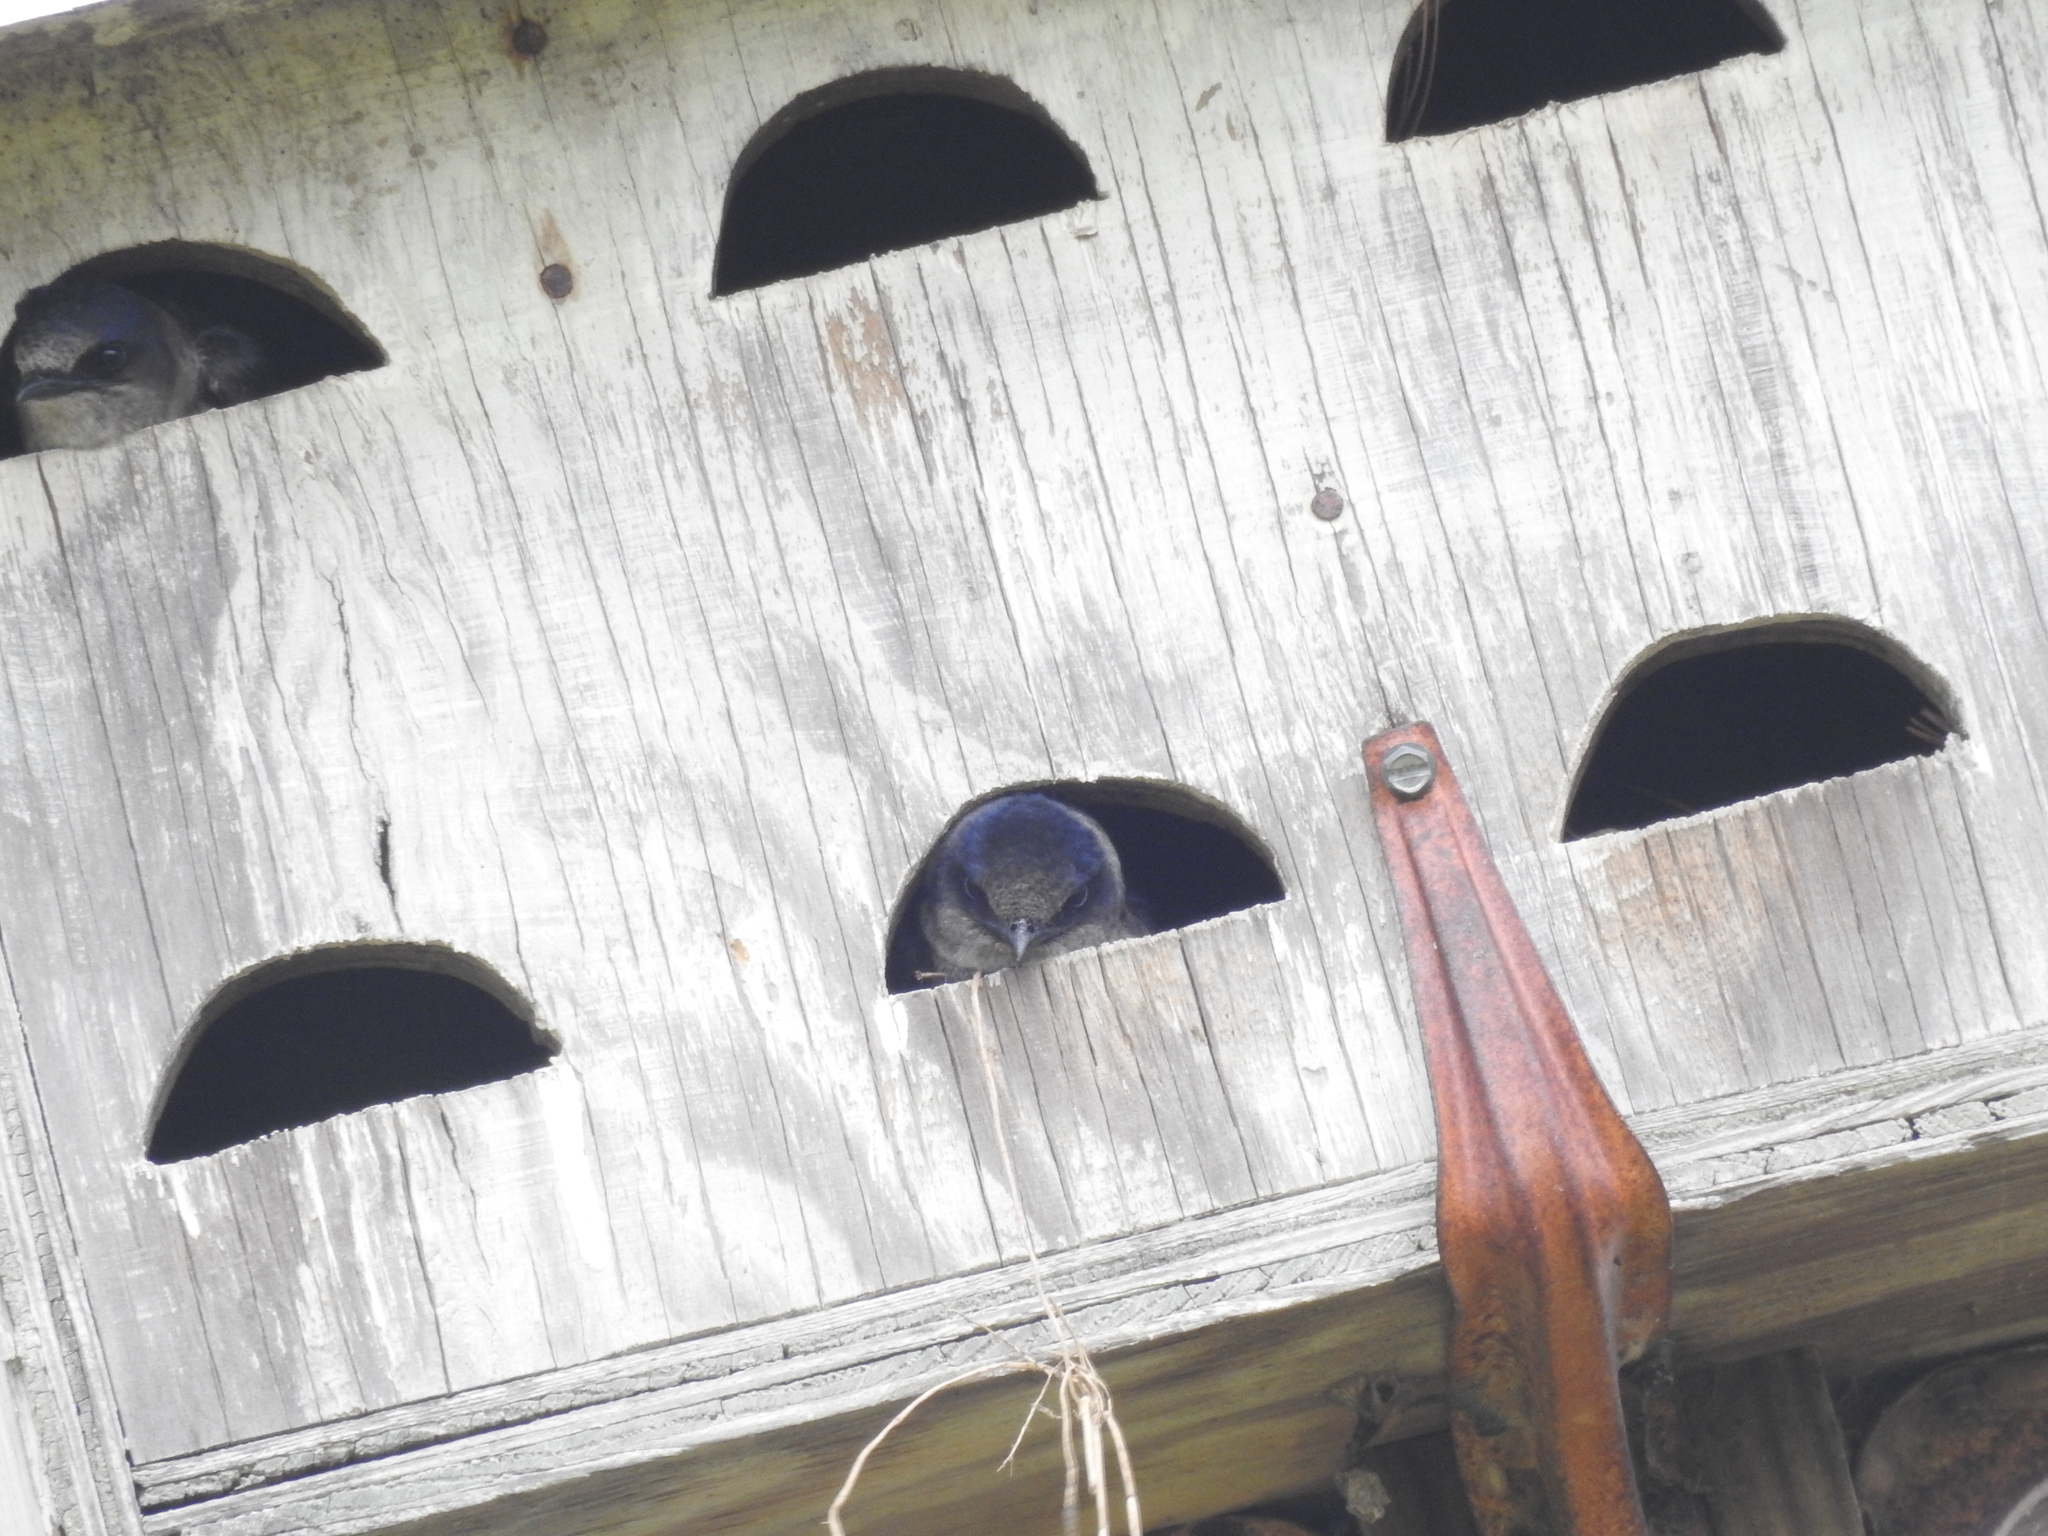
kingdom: Animalia
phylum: Chordata
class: Aves
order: Passeriformes
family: Hirundinidae
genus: Progne
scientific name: Progne subis
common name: Purple martin
